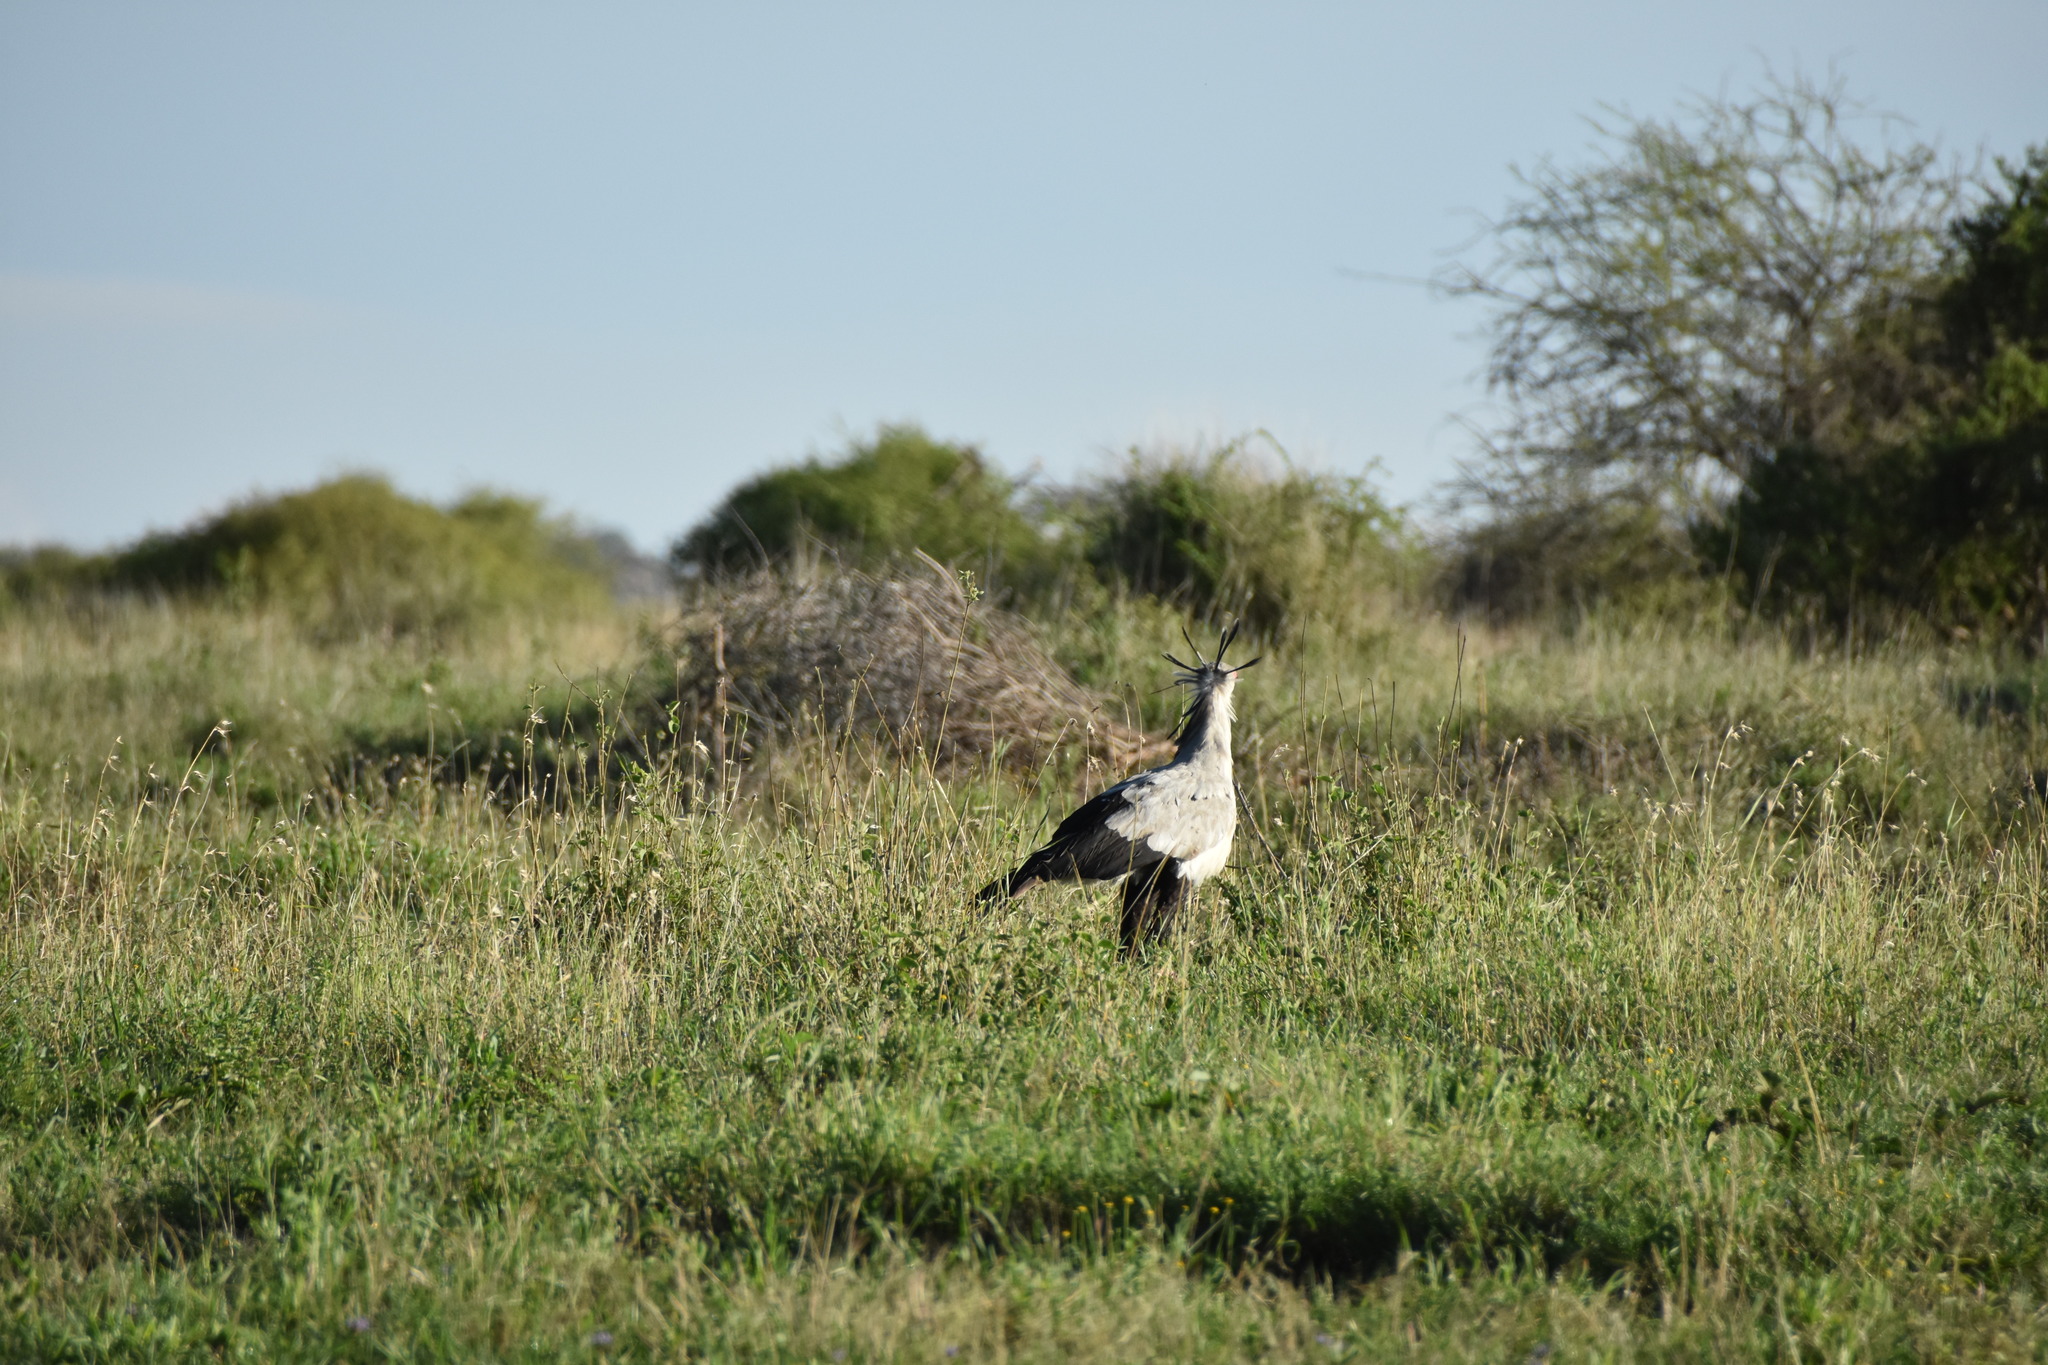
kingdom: Animalia
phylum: Chordata
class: Aves
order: Accipitriformes
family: Sagittariidae
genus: Sagittarius
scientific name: Sagittarius serpentarius
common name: Secretarybird
